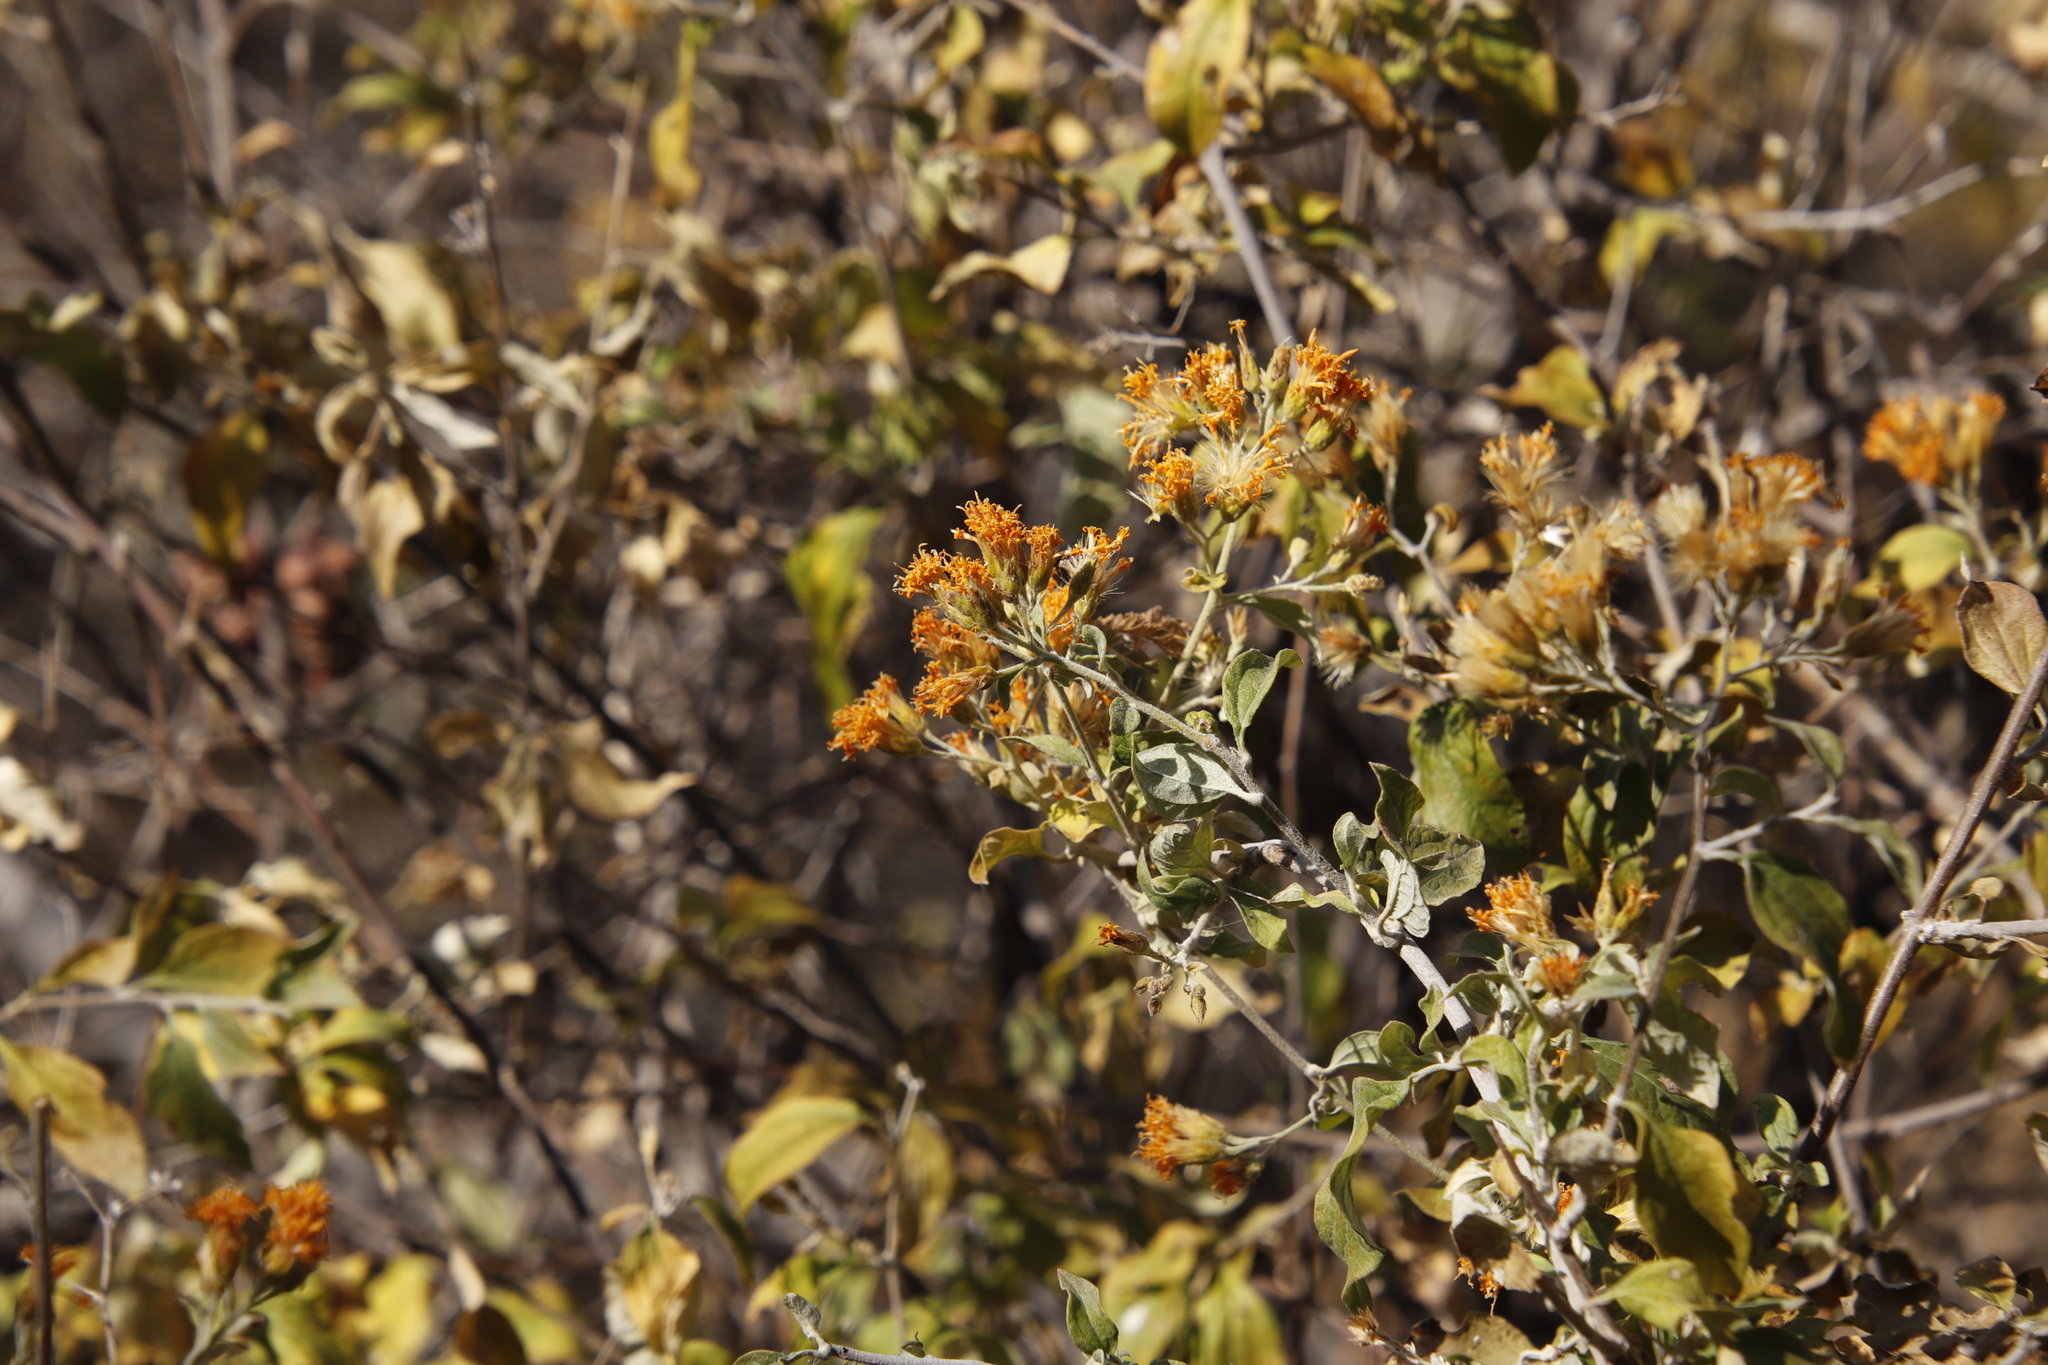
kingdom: Plantae
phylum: Tracheophyta
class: Magnoliopsida
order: Asterales
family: Asteraceae
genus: Distephanus
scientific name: Distephanus divaricatus
